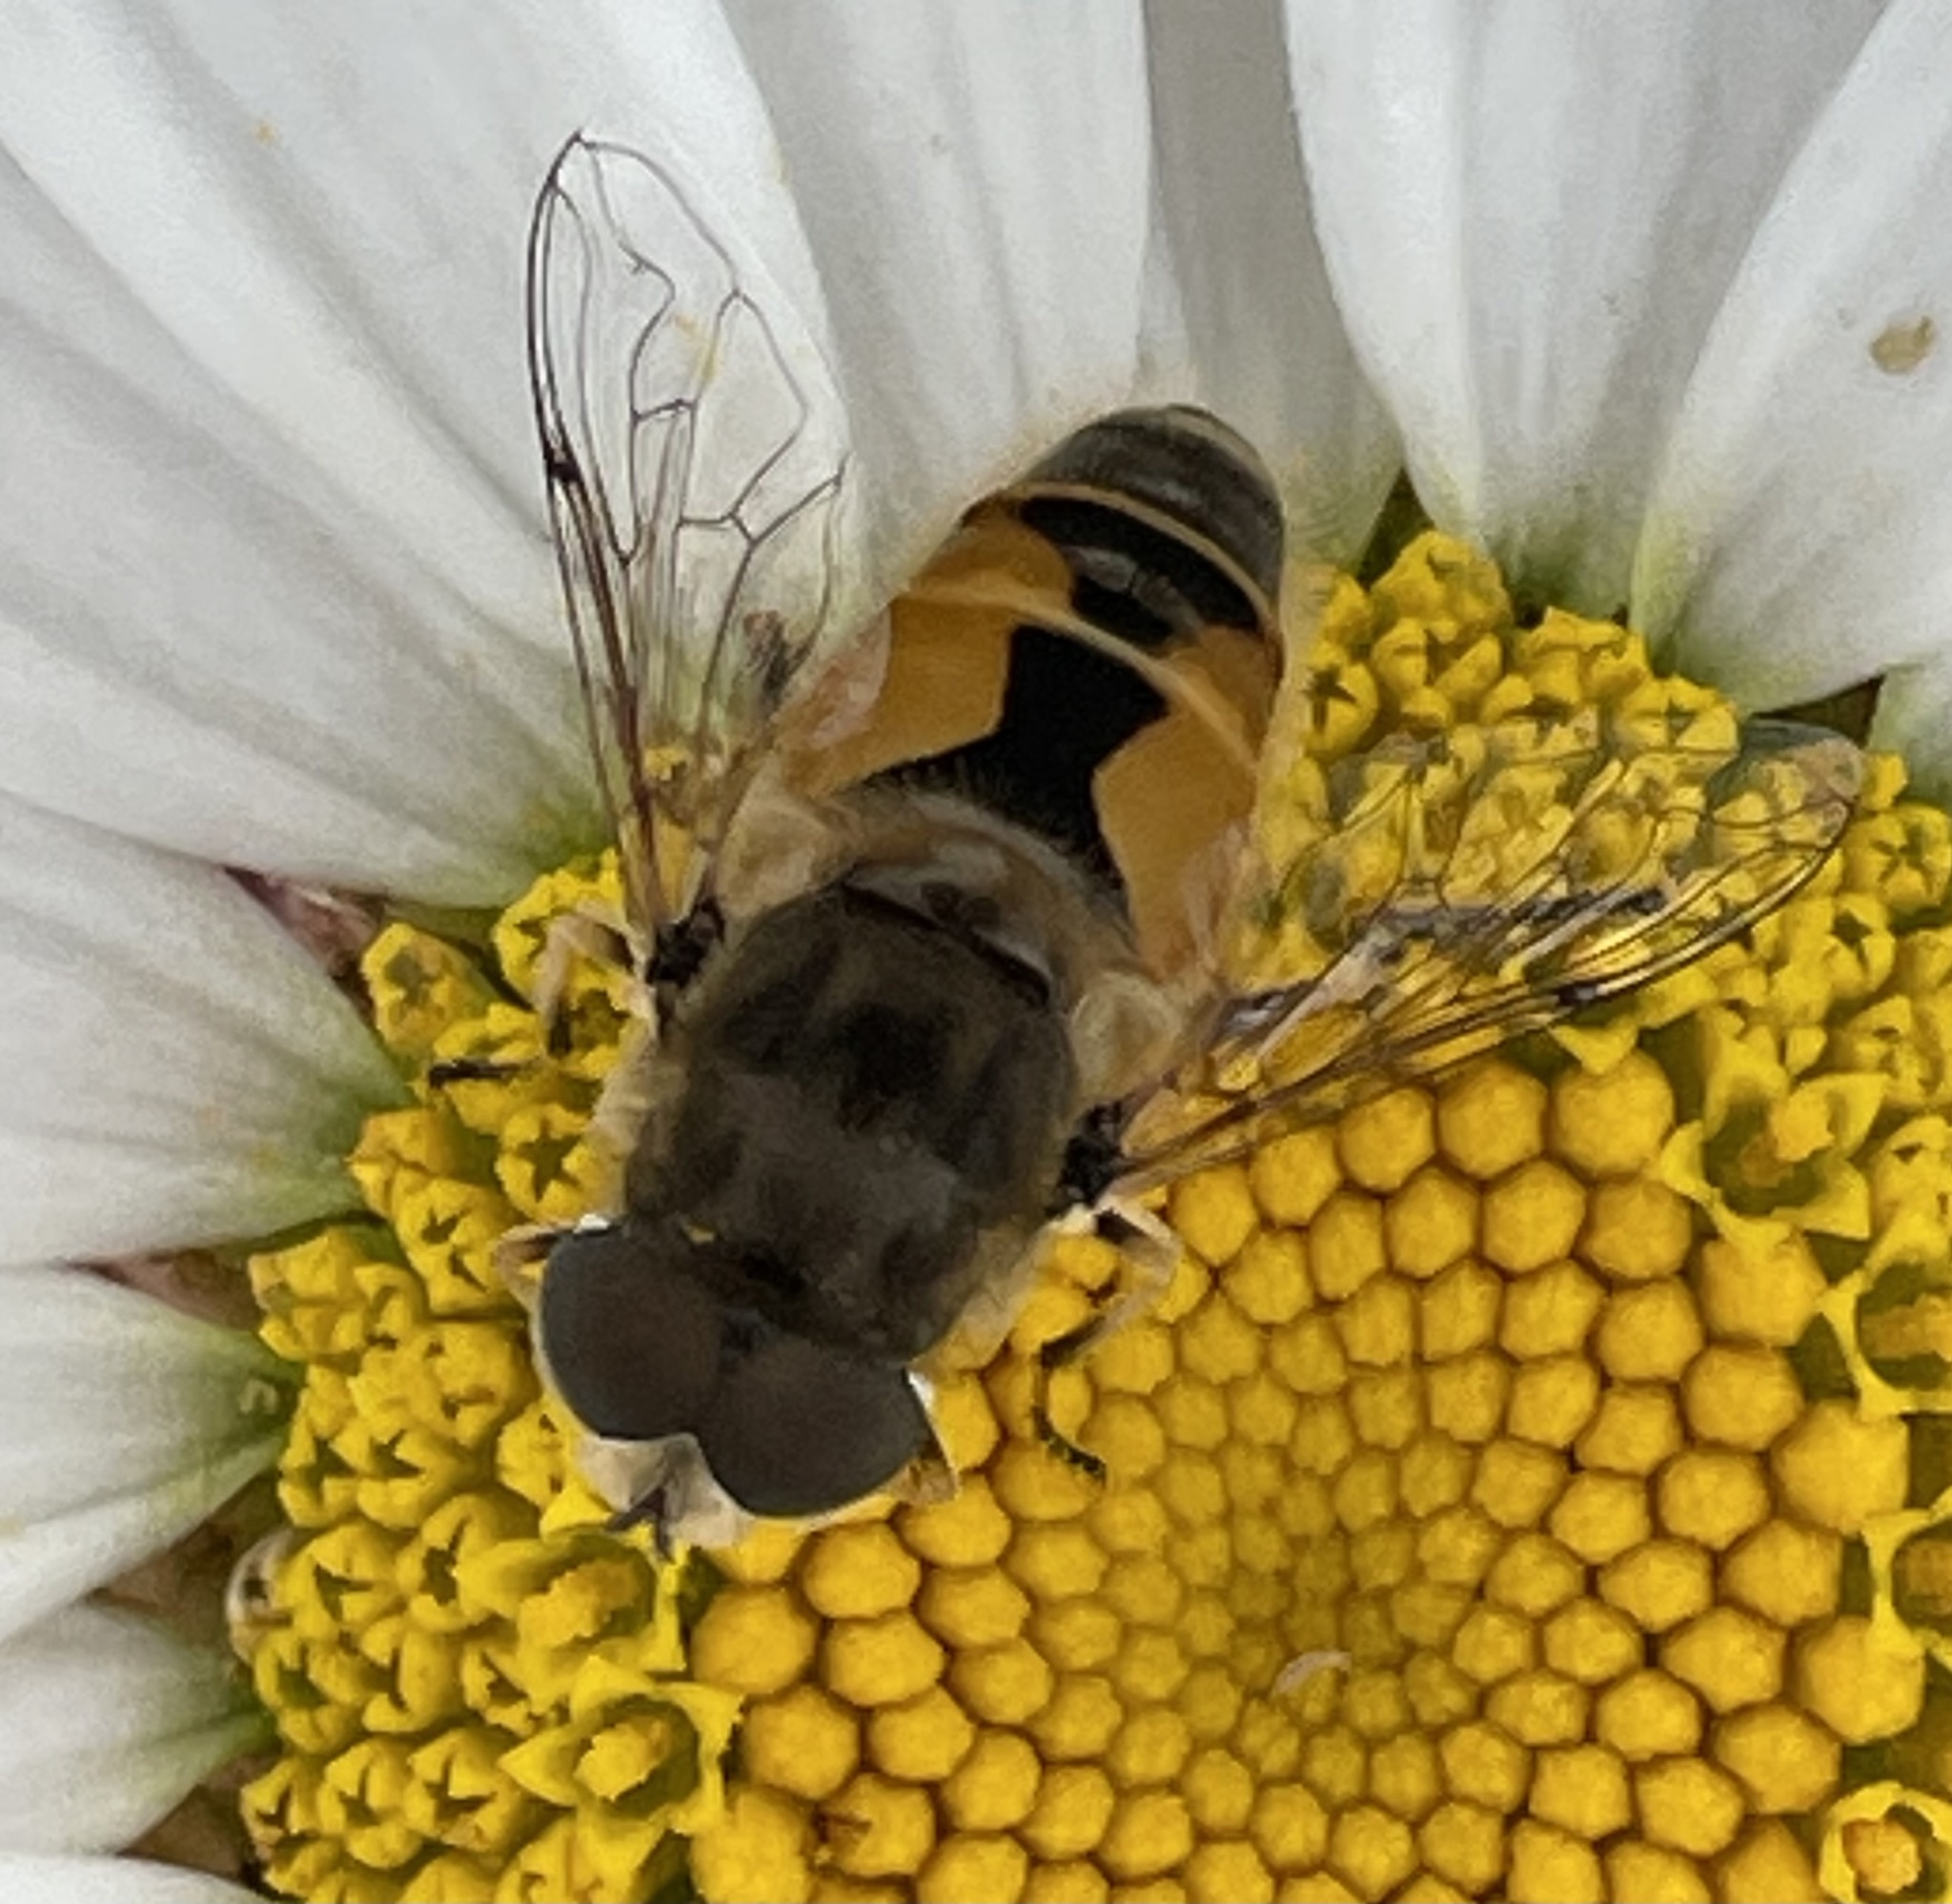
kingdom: Animalia
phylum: Arthropoda
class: Insecta
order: Diptera
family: Syrphidae
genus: Eristalis
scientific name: Eristalis arbustorum
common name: Hover fly
